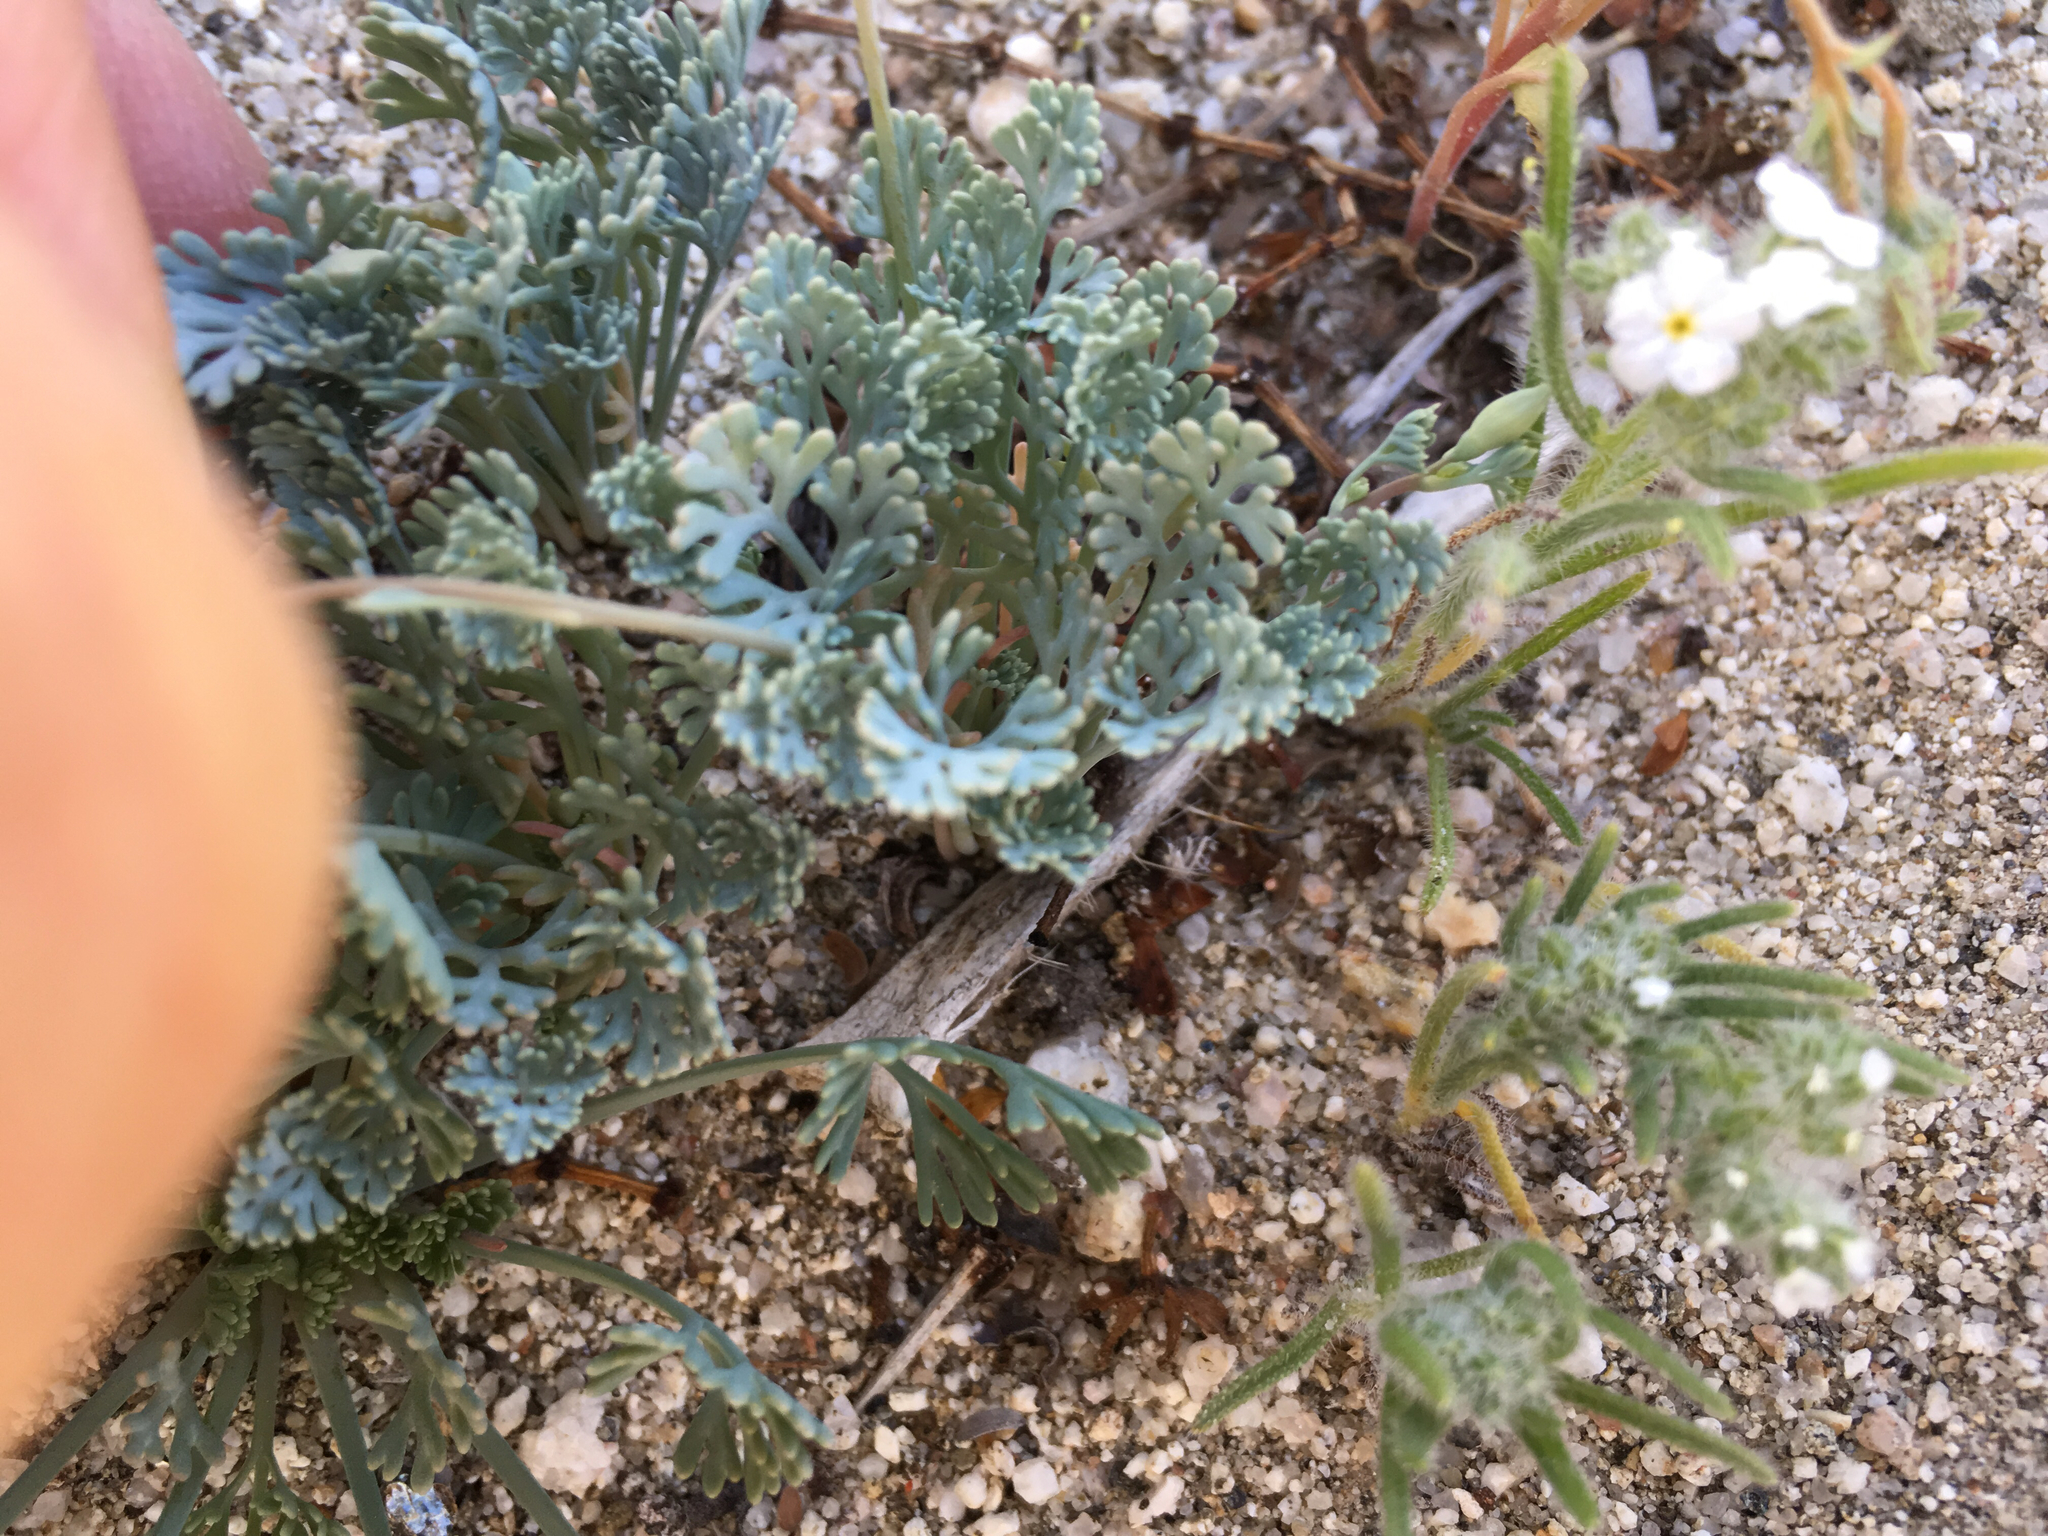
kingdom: Plantae
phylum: Tracheophyta
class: Magnoliopsida
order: Ranunculales
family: Papaveraceae
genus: Eschscholzia
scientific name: Eschscholzia minutiflora
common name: Small-flower california-poppy
